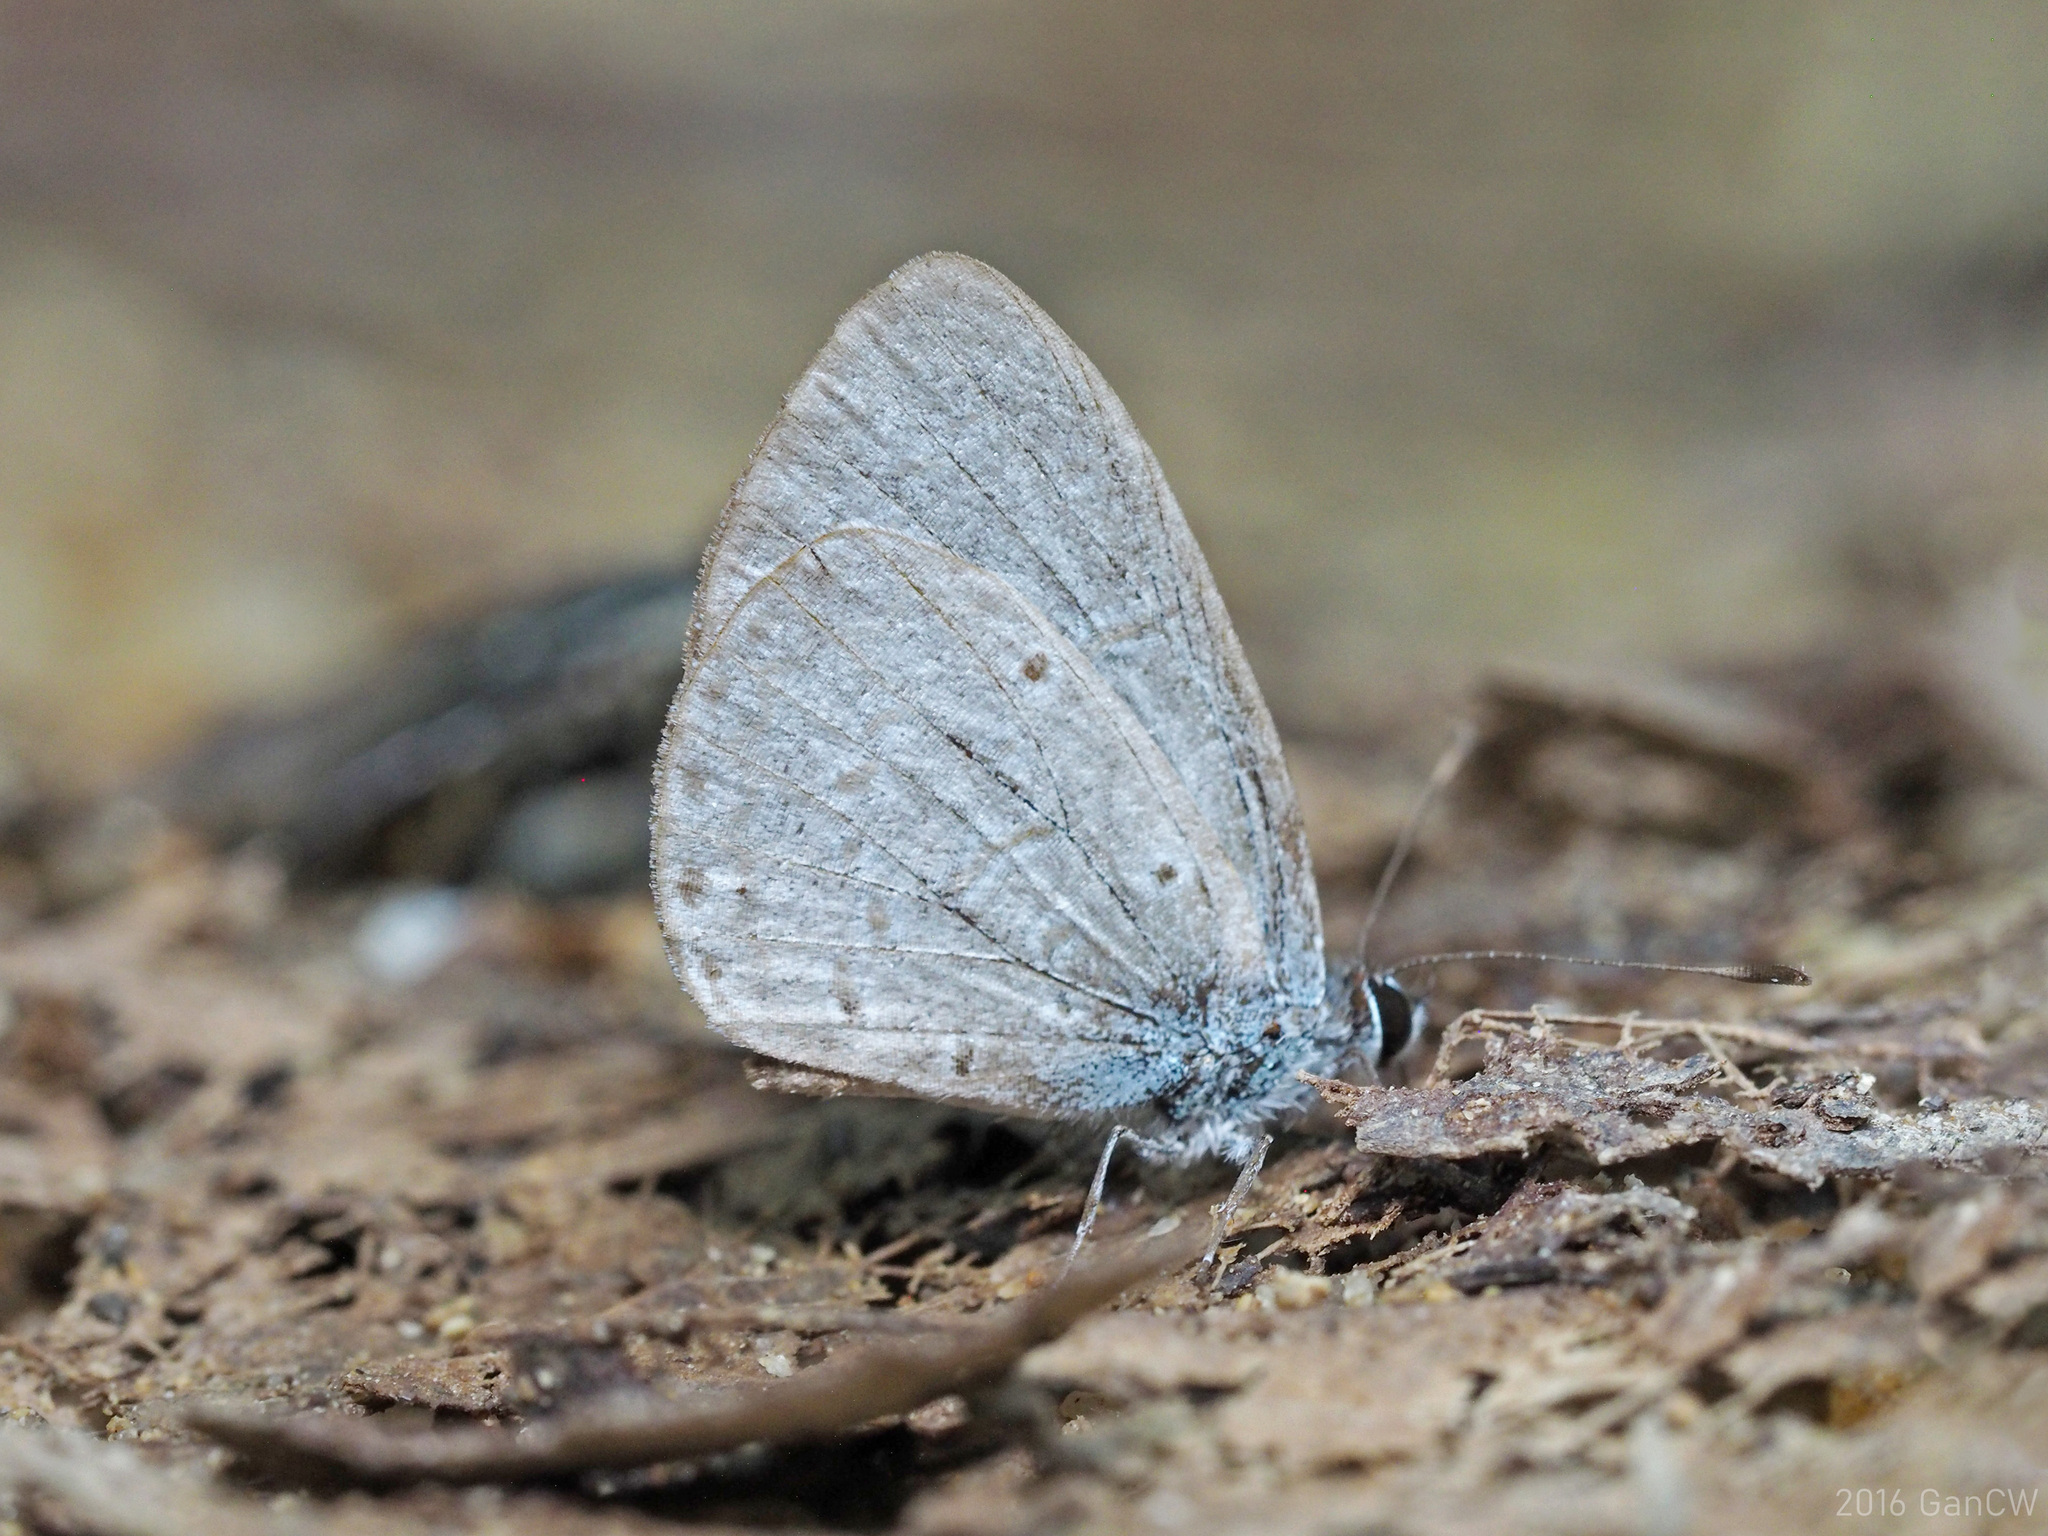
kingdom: Animalia
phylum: Arthropoda
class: Insecta
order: Lepidoptera
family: Lycaenidae
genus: Monodontides
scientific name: Monodontides
